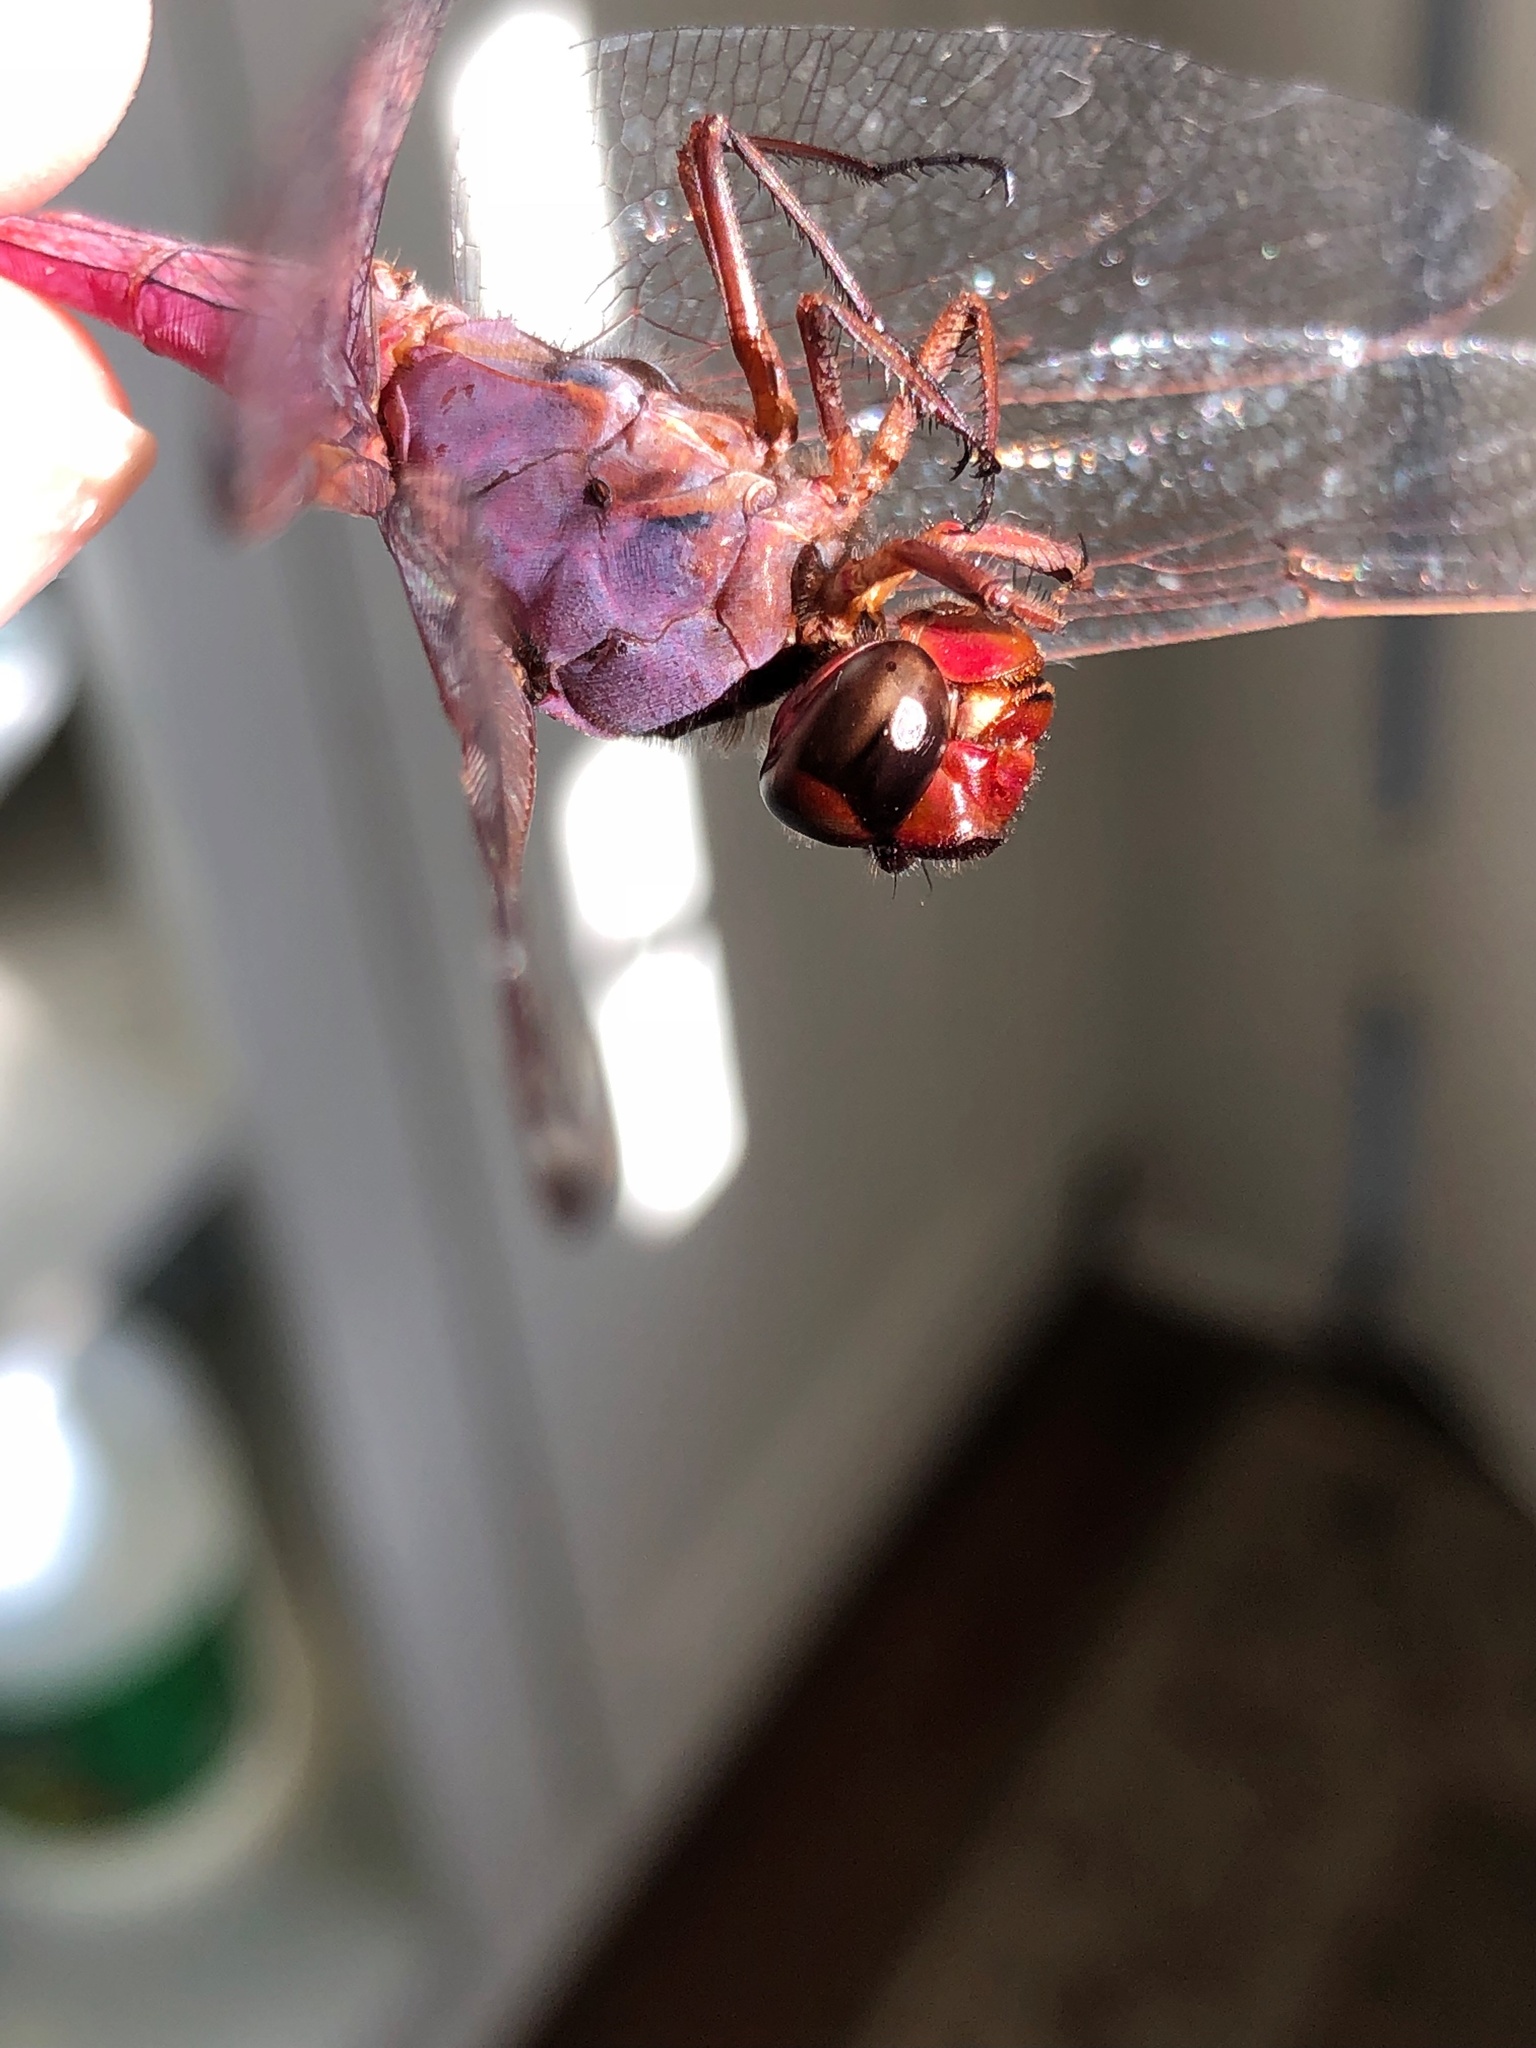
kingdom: Animalia
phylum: Arthropoda
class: Insecta
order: Odonata
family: Libellulidae
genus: Orthemis
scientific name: Orthemis ferruginea
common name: Roseate skimmer
